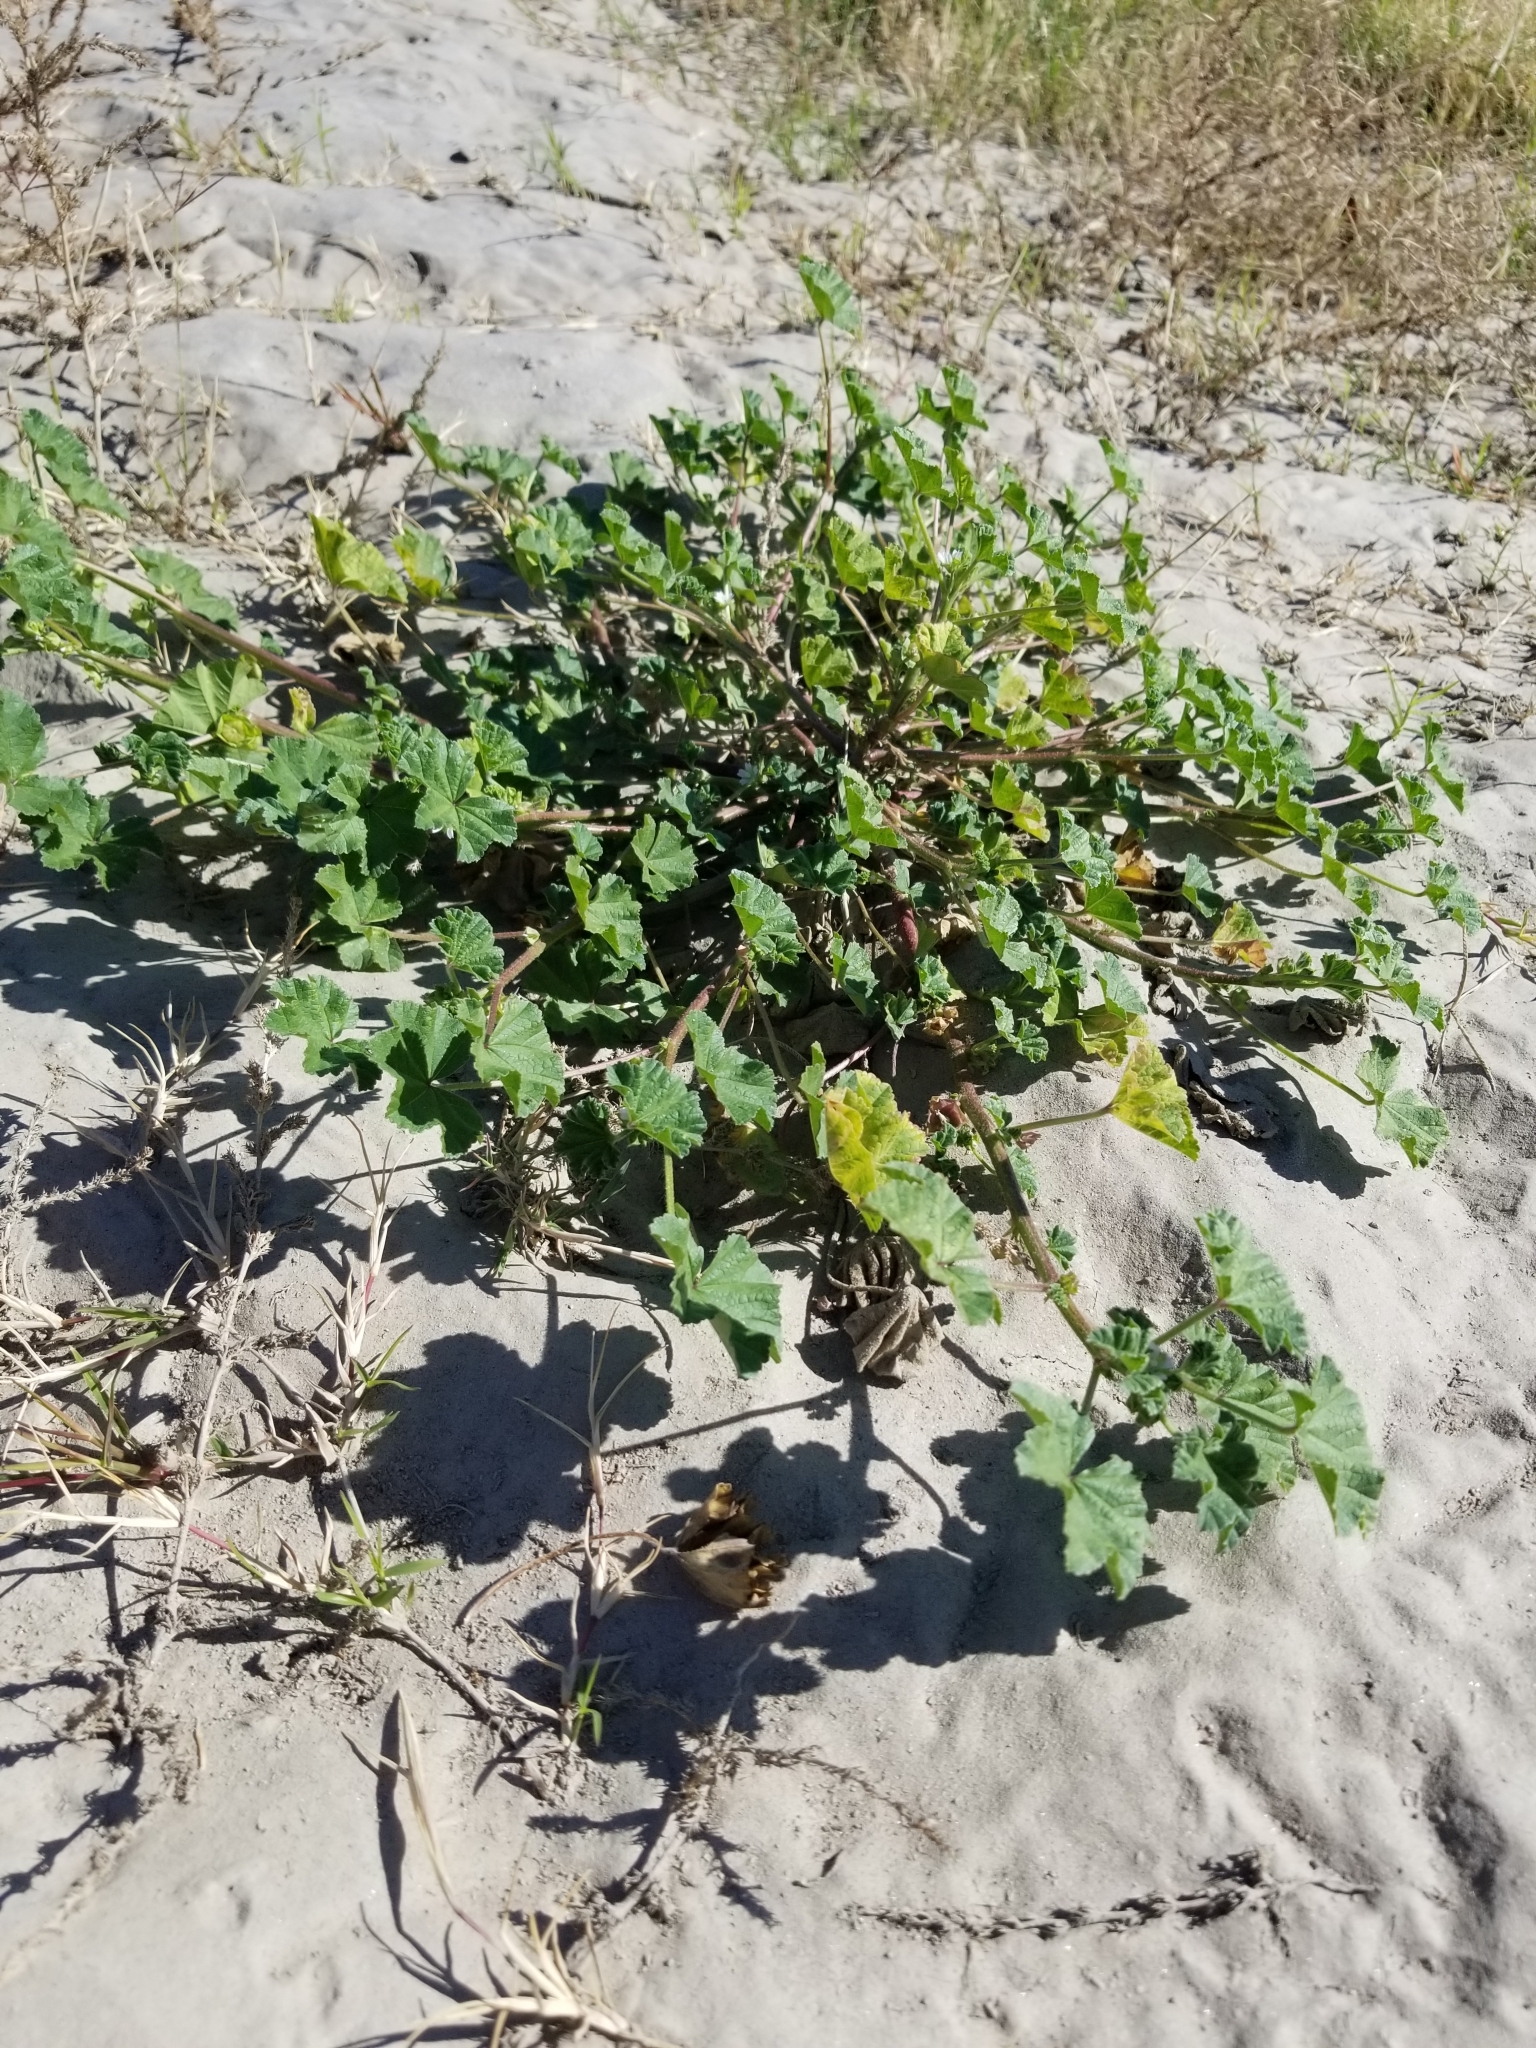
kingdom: Plantae
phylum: Tracheophyta
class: Magnoliopsida
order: Malvales
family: Malvaceae
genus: Malva
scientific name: Malva parviflora
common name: Least mallow
